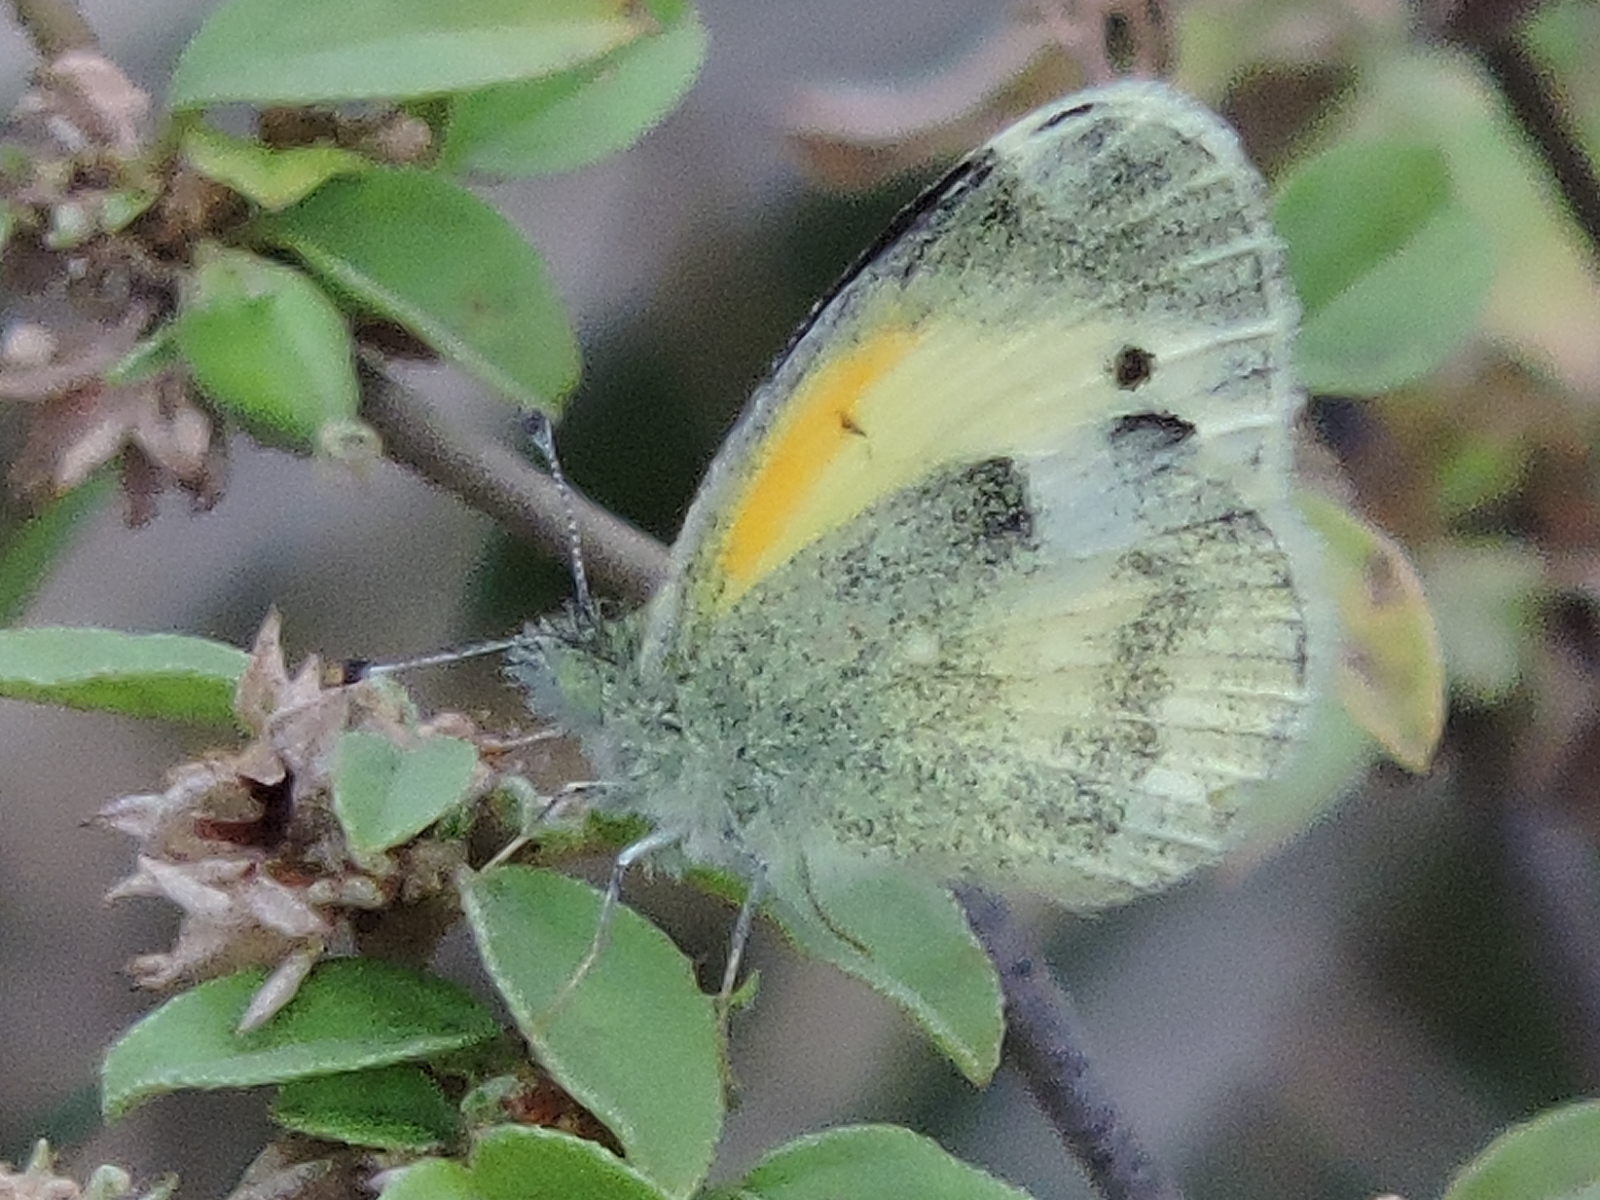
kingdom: Animalia
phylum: Arthropoda
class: Insecta
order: Lepidoptera
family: Pieridae
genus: Nathalis
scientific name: Nathalis iole
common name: Dainty sulphur
